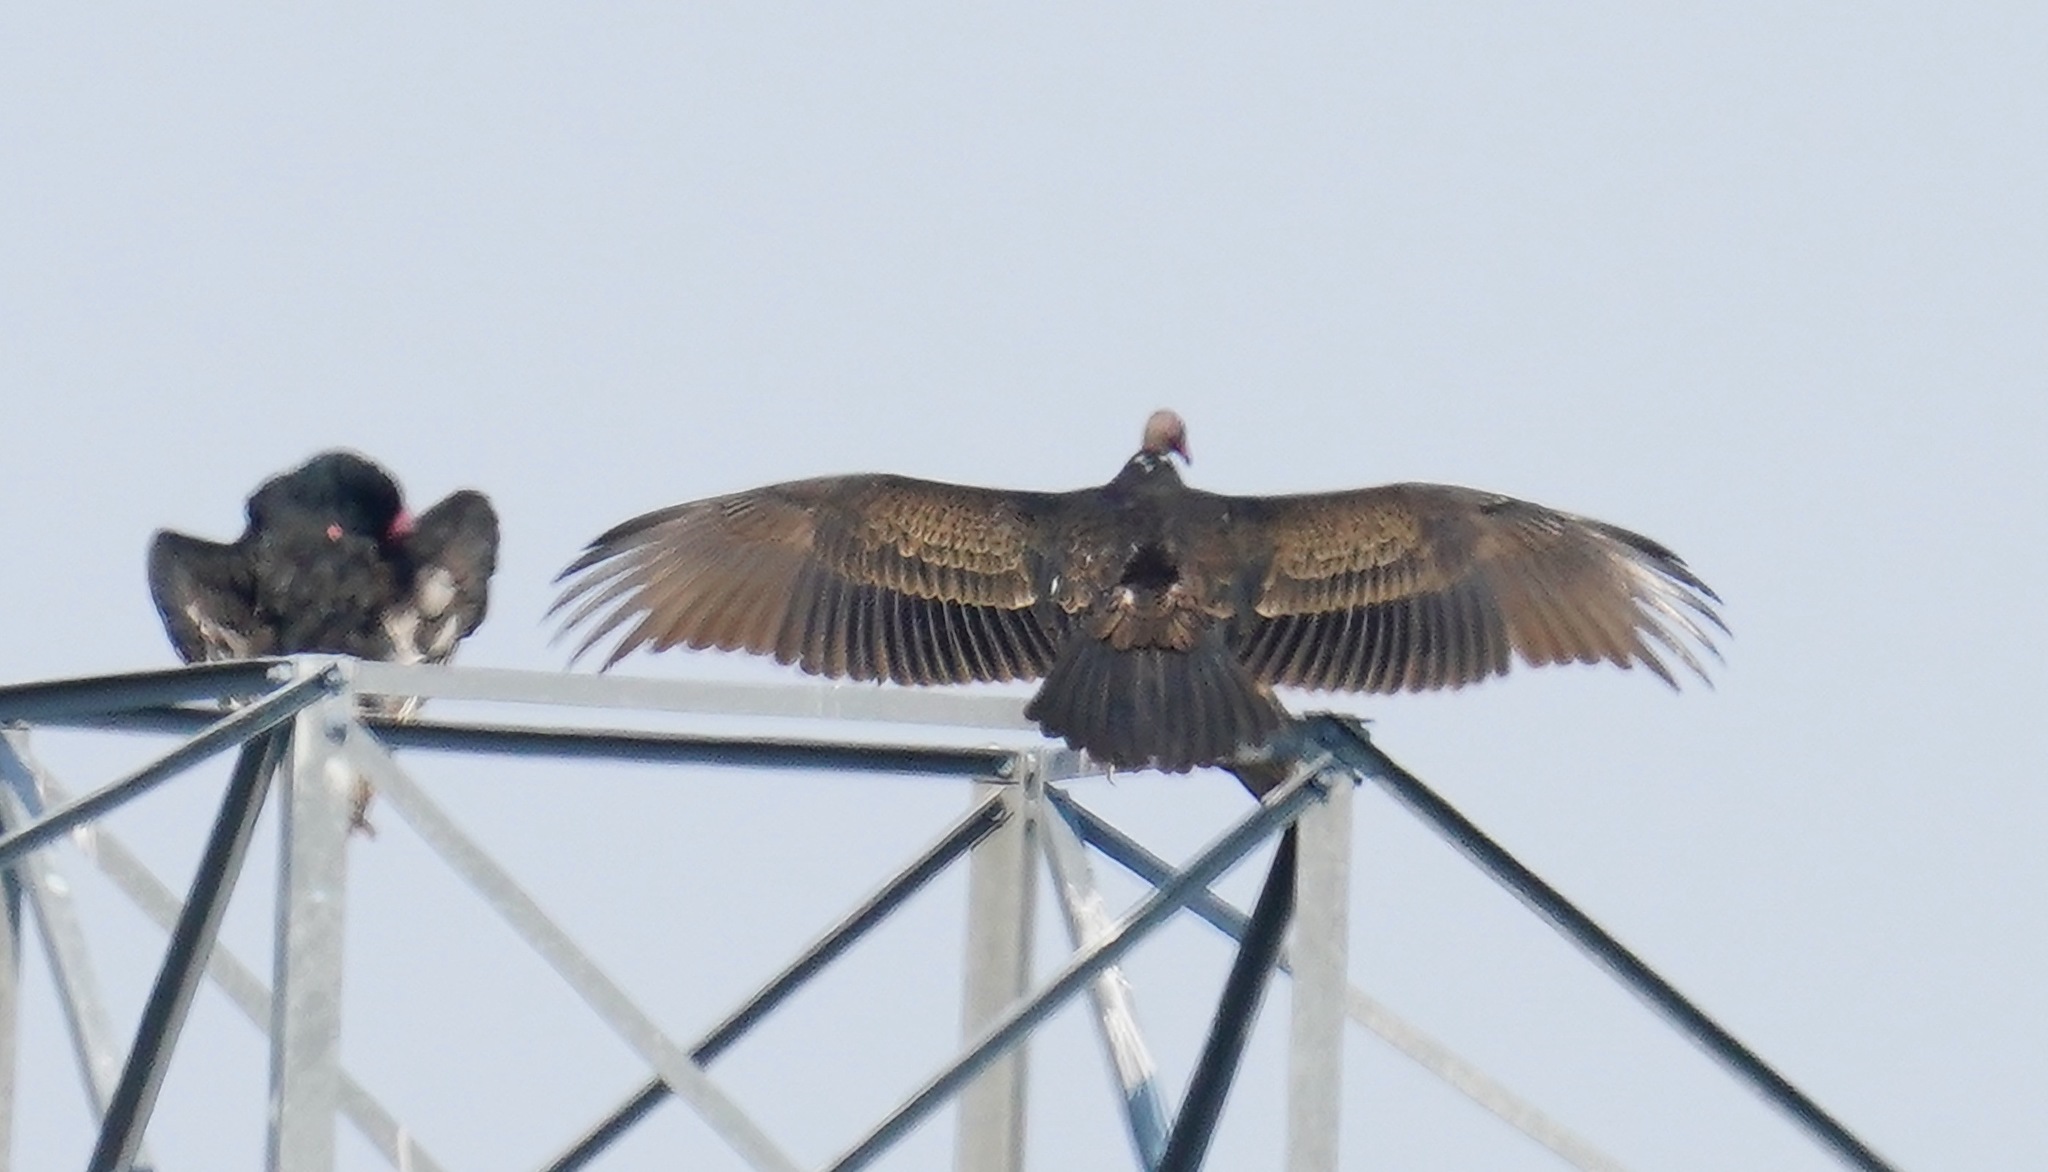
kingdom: Animalia
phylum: Chordata
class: Aves
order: Accipitriformes
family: Cathartidae
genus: Cathartes
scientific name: Cathartes aura
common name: Turkey vulture
